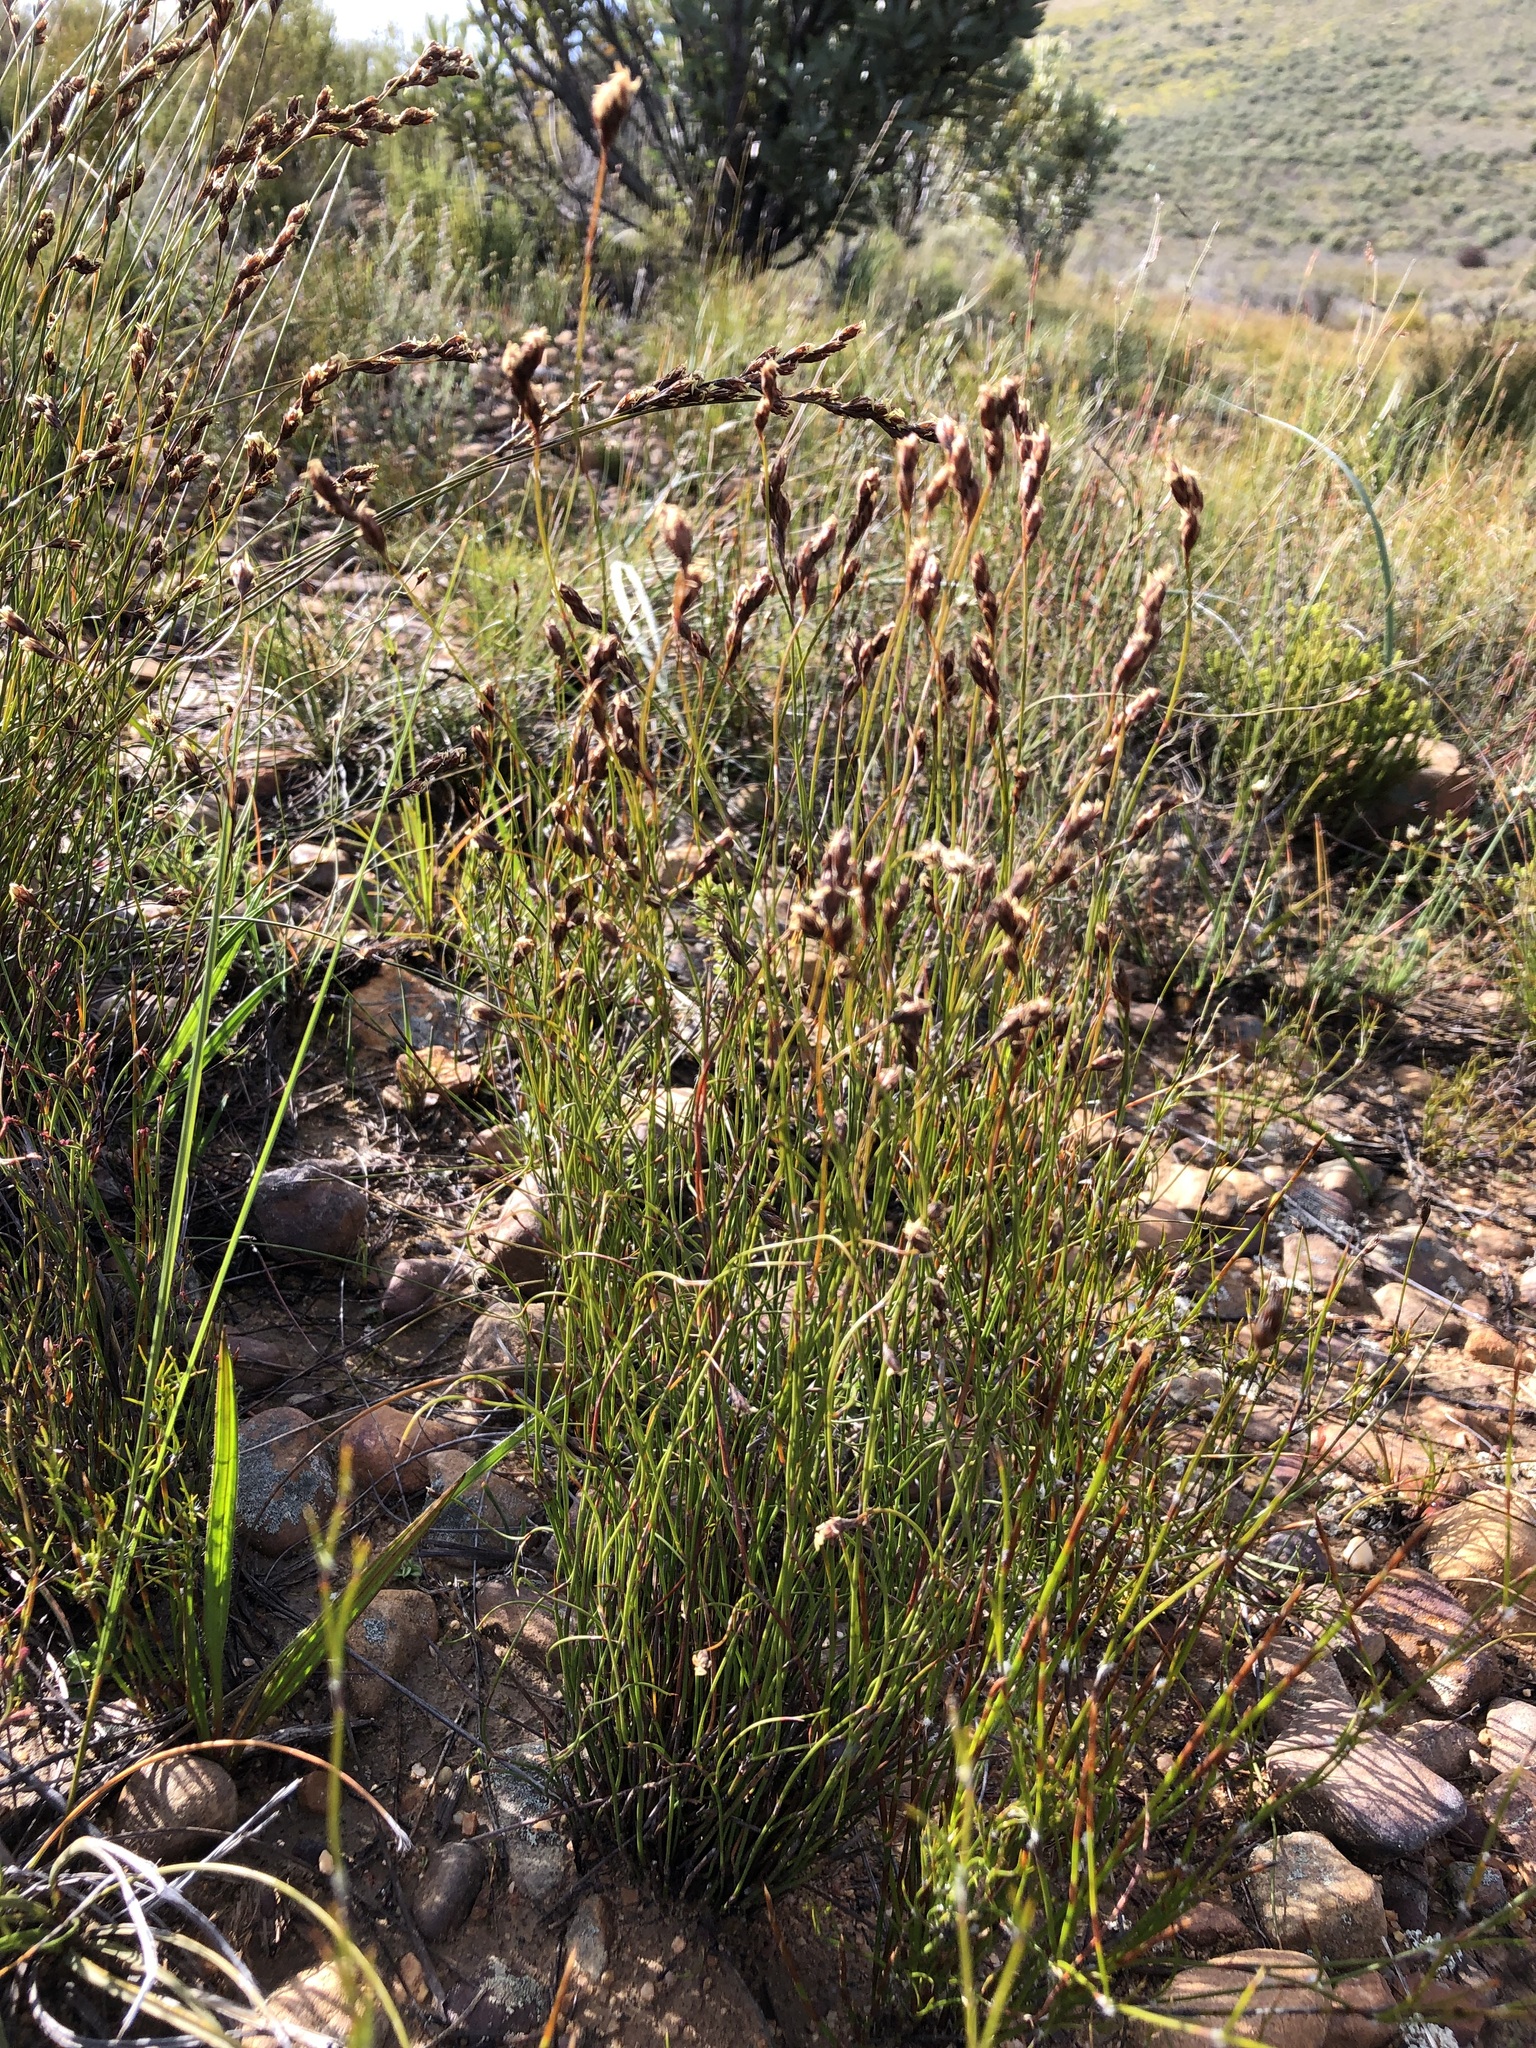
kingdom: Plantae
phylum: Tracheophyta
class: Liliopsida
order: Poales
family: Restionaceae
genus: Restio
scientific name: Restio filiformis
